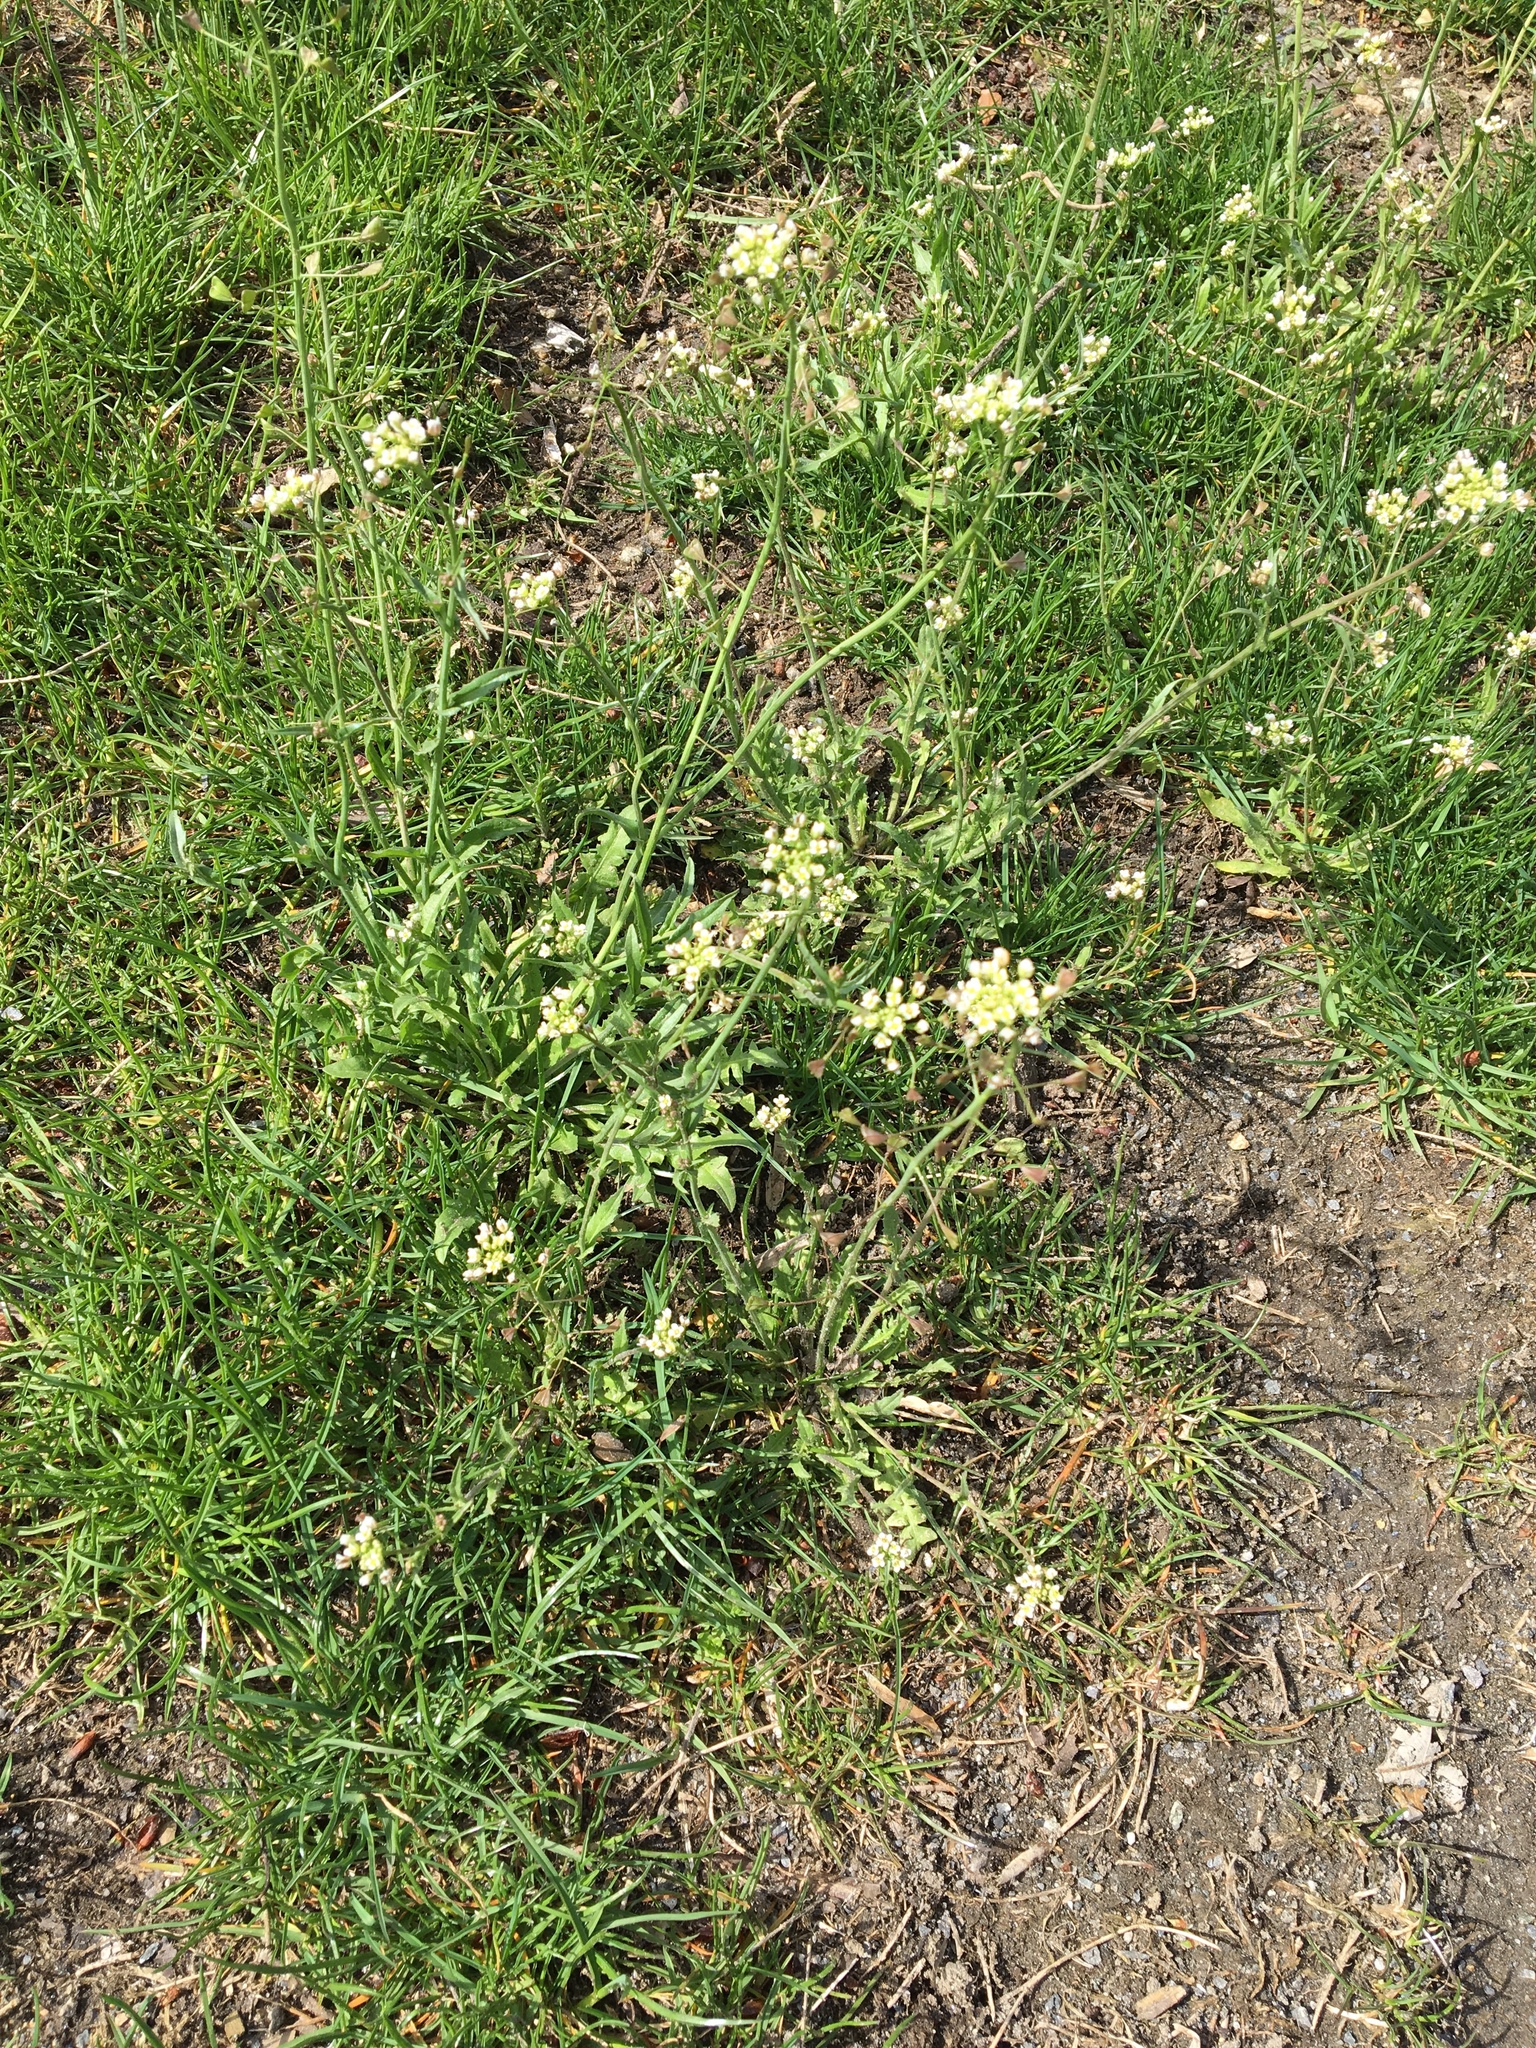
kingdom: Plantae
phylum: Tracheophyta
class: Magnoliopsida
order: Brassicales
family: Brassicaceae
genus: Capsella
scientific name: Capsella bursa-pastoris
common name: Shepherd's purse
